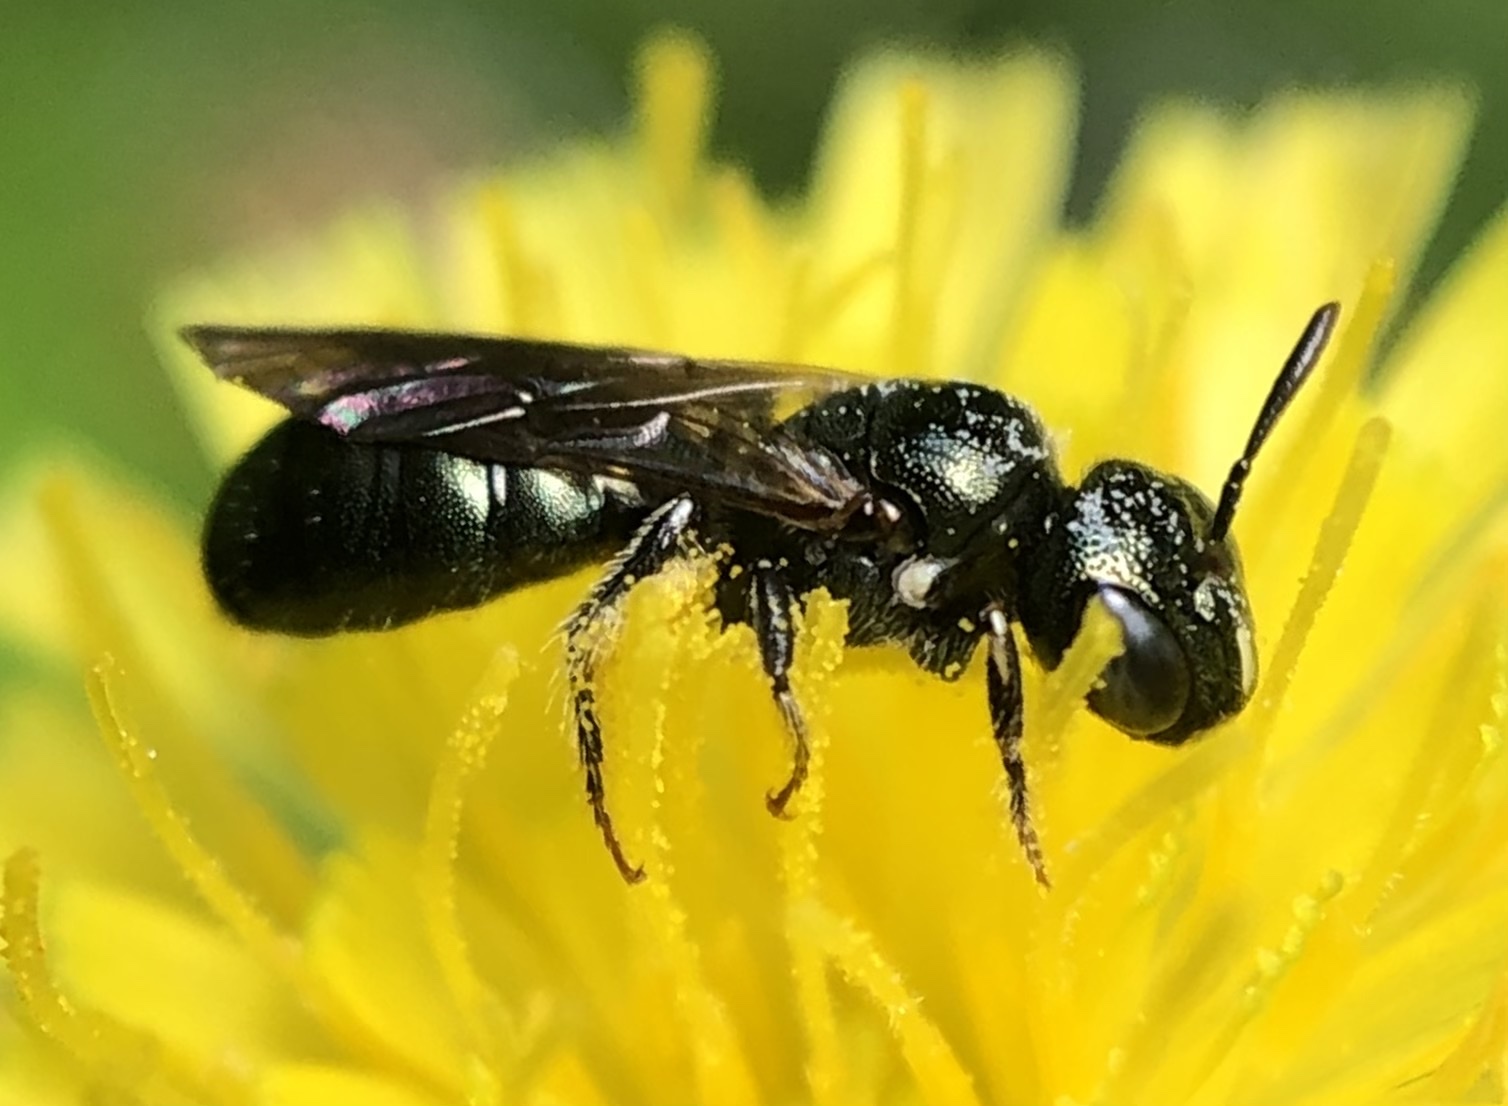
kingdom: Animalia
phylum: Arthropoda
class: Insecta
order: Hymenoptera
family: Apidae
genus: Ceratina
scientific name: Ceratina strenua
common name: Nimble carpenter bee
